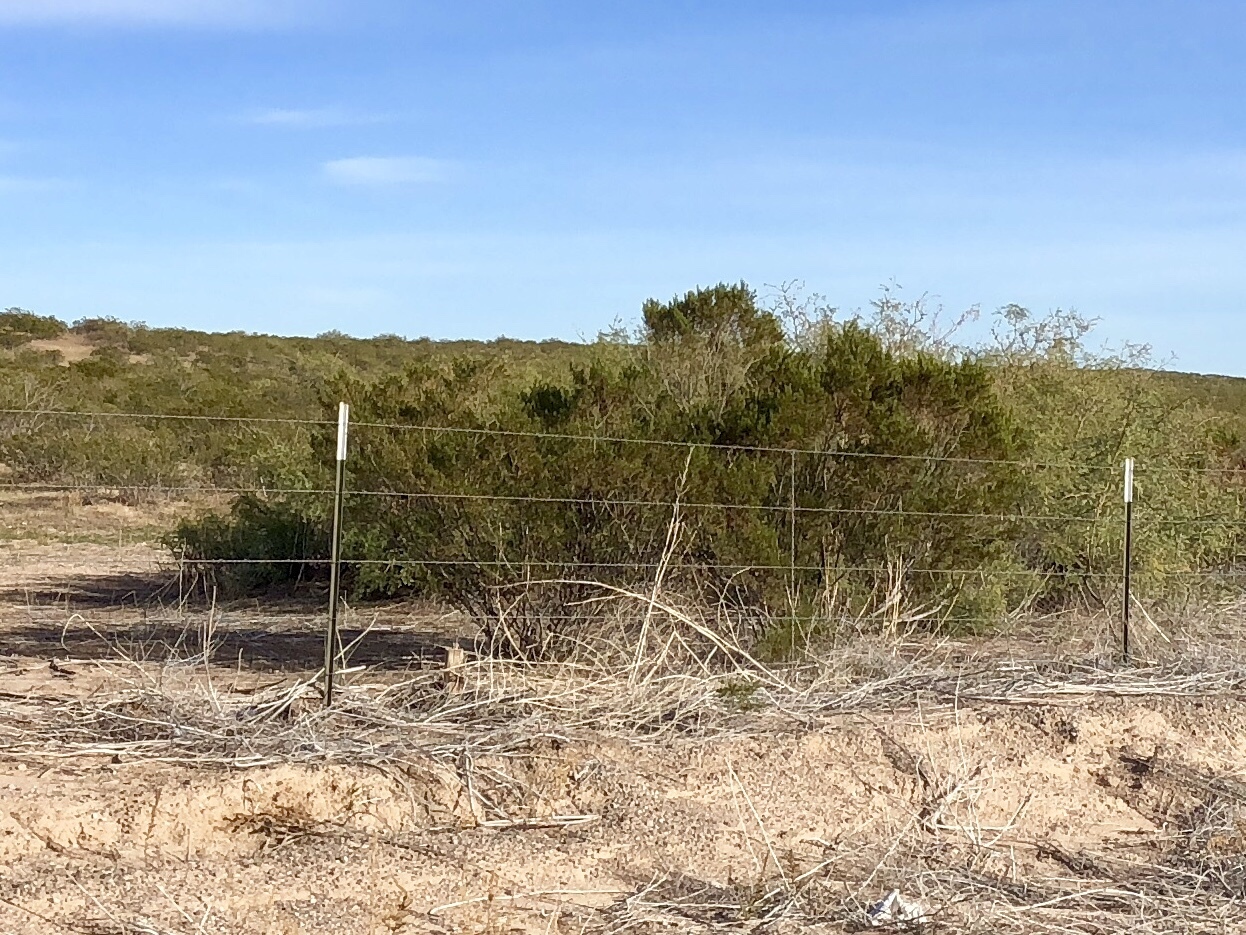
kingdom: Plantae
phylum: Tracheophyta
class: Magnoliopsida
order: Zygophyllales
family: Zygophyllaceae
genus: Larrea
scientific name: Larrea tridentata
